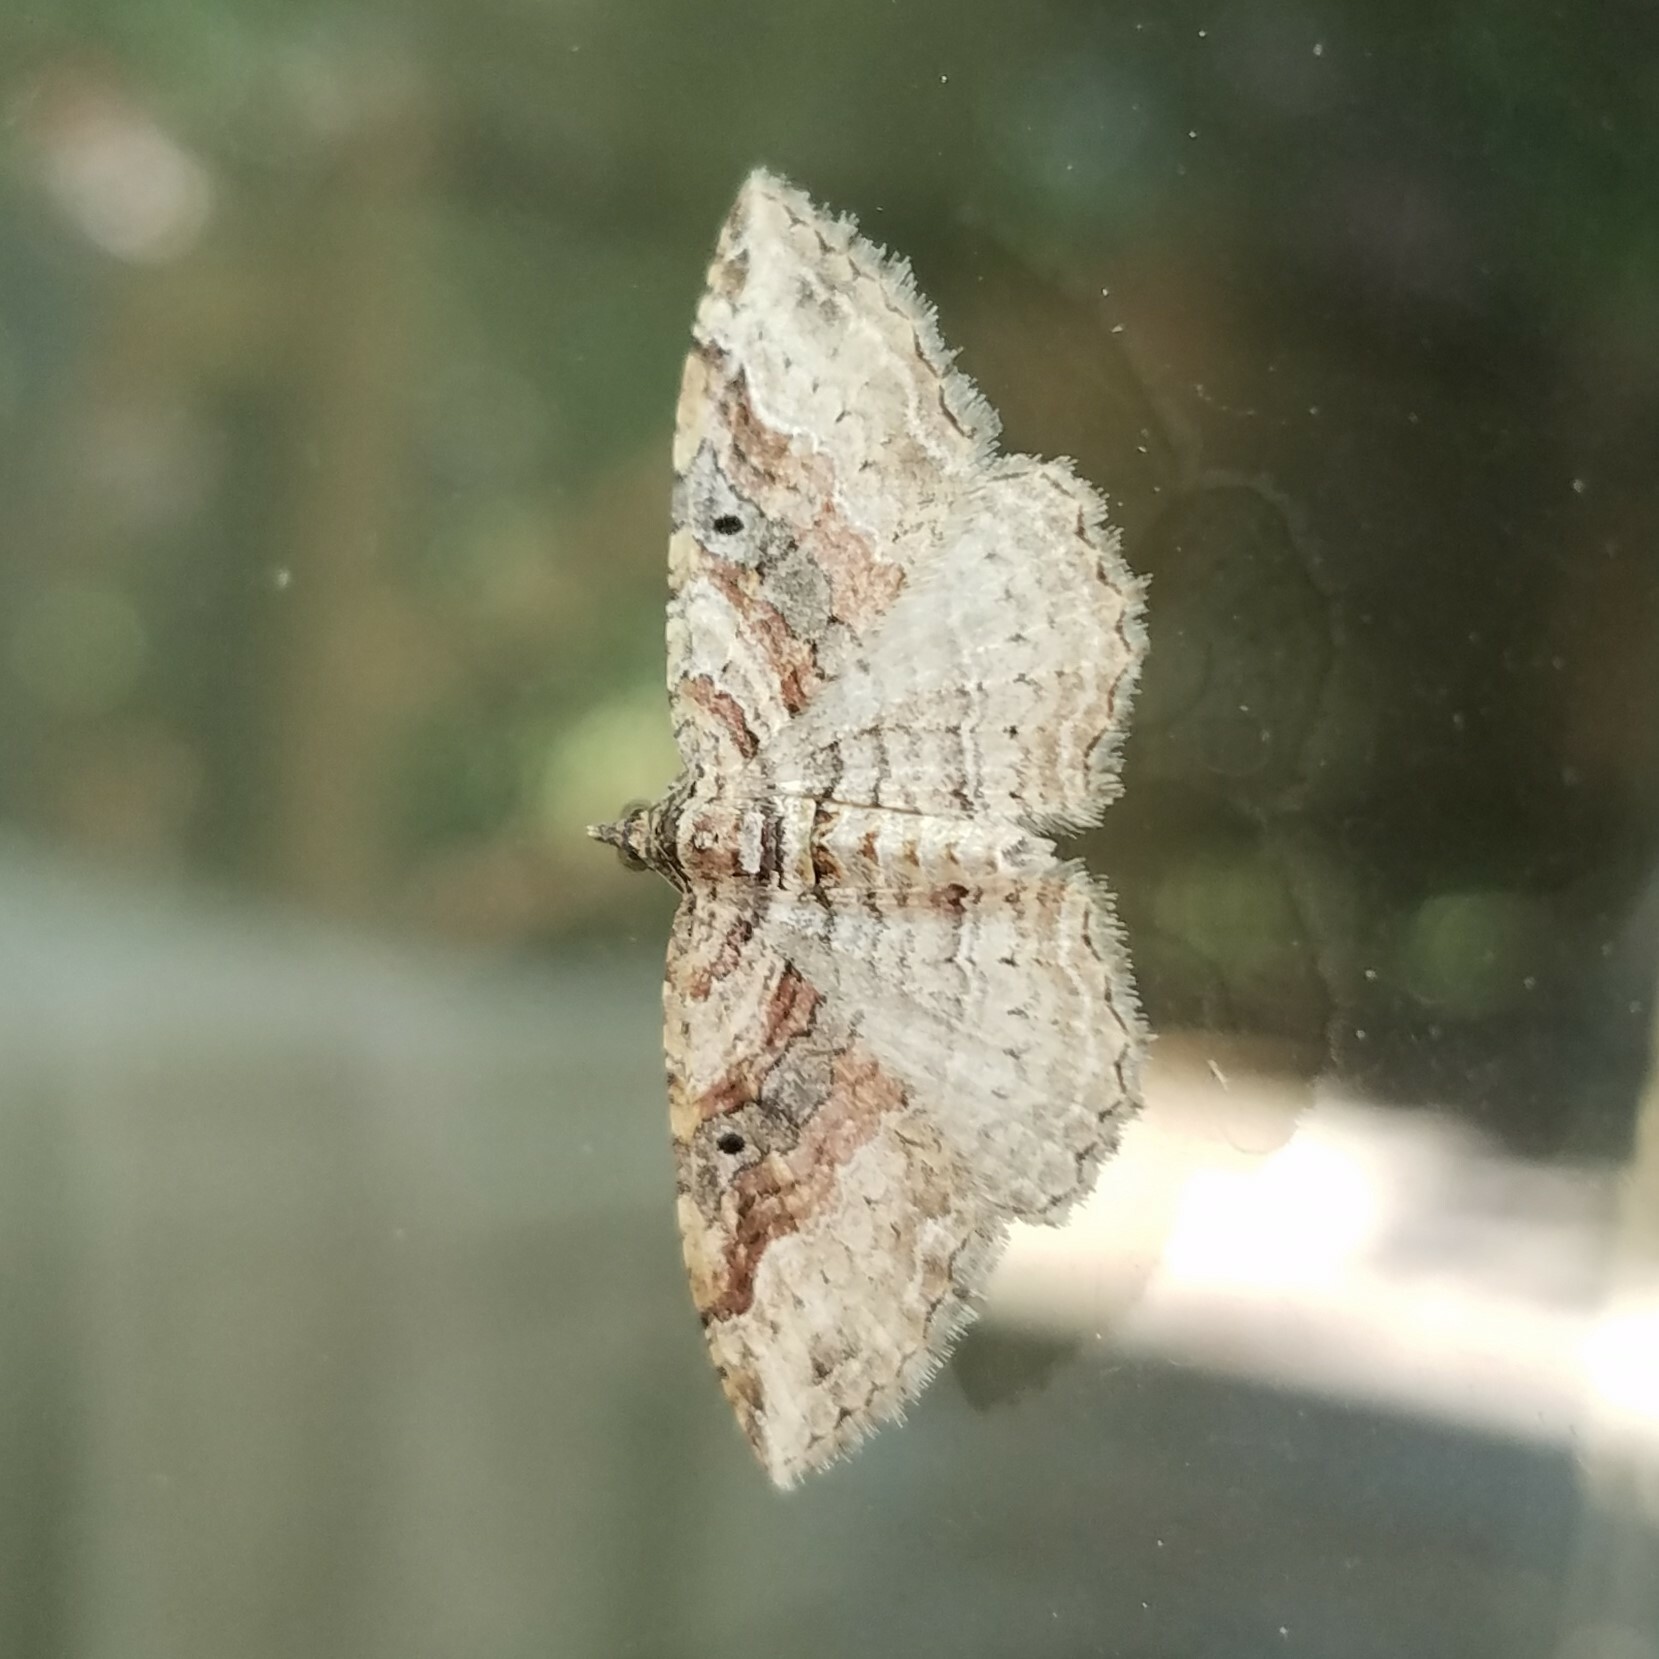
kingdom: Animalia
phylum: Arthropoda
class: Insecta
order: Lepidoptera
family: Geometridae
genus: Costaconvexa
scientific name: Costaconvexa centrostrigaria
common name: Bent-line carpet
